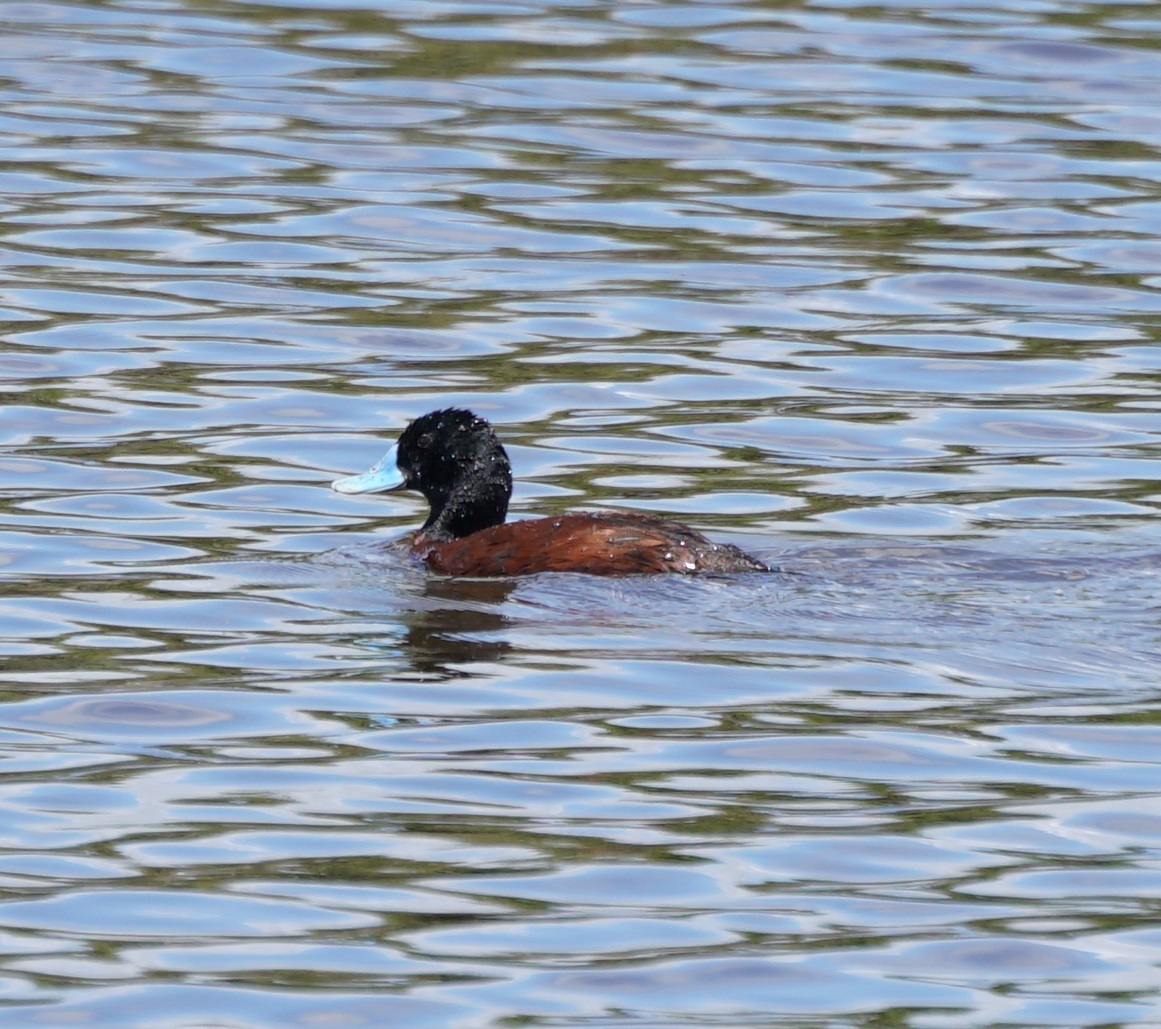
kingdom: Animalia
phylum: Chordata
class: Aves
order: Anseriformes
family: Anatidae
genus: Oxyura
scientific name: Oxyura australis
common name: Blue-billed duck
